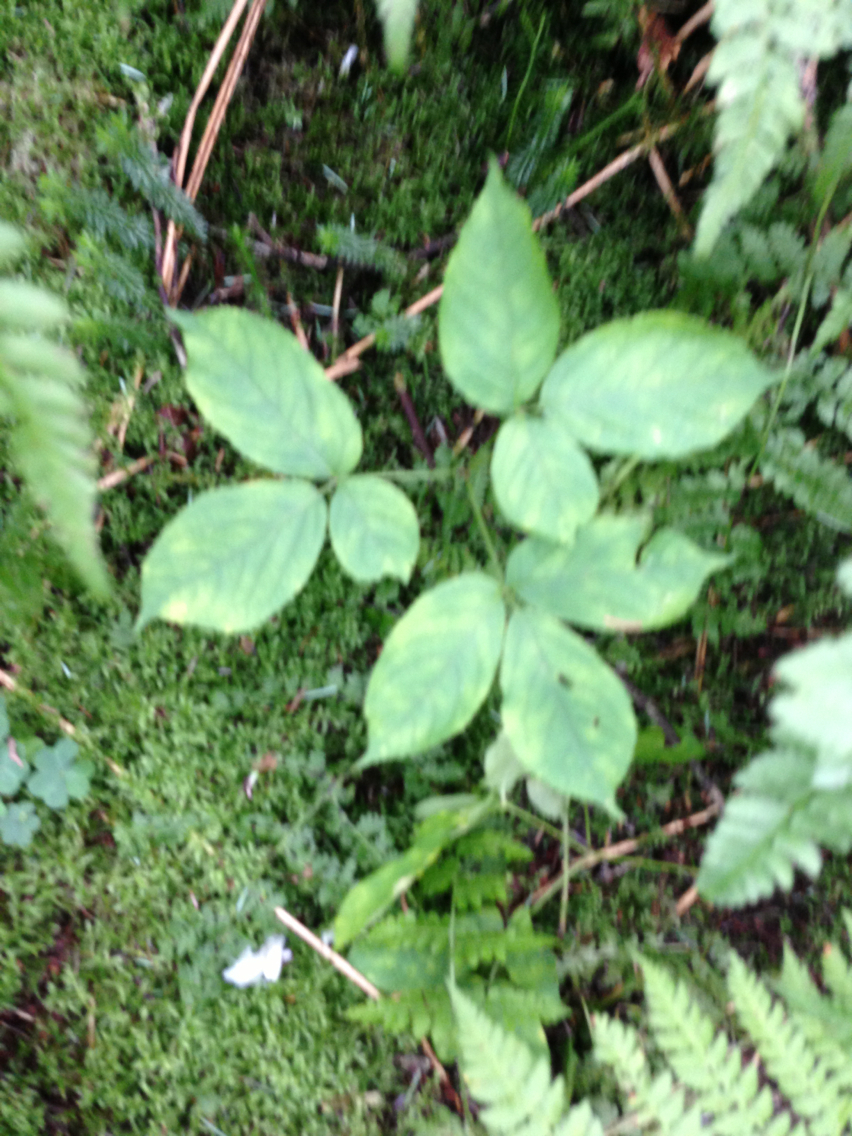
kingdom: Plantae
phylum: Tracheophyta
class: Magnoliopsida
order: Apiales
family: Araliaceae
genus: Aralia
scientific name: Aralia nudicaulis
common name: Wild sarsaparilla
